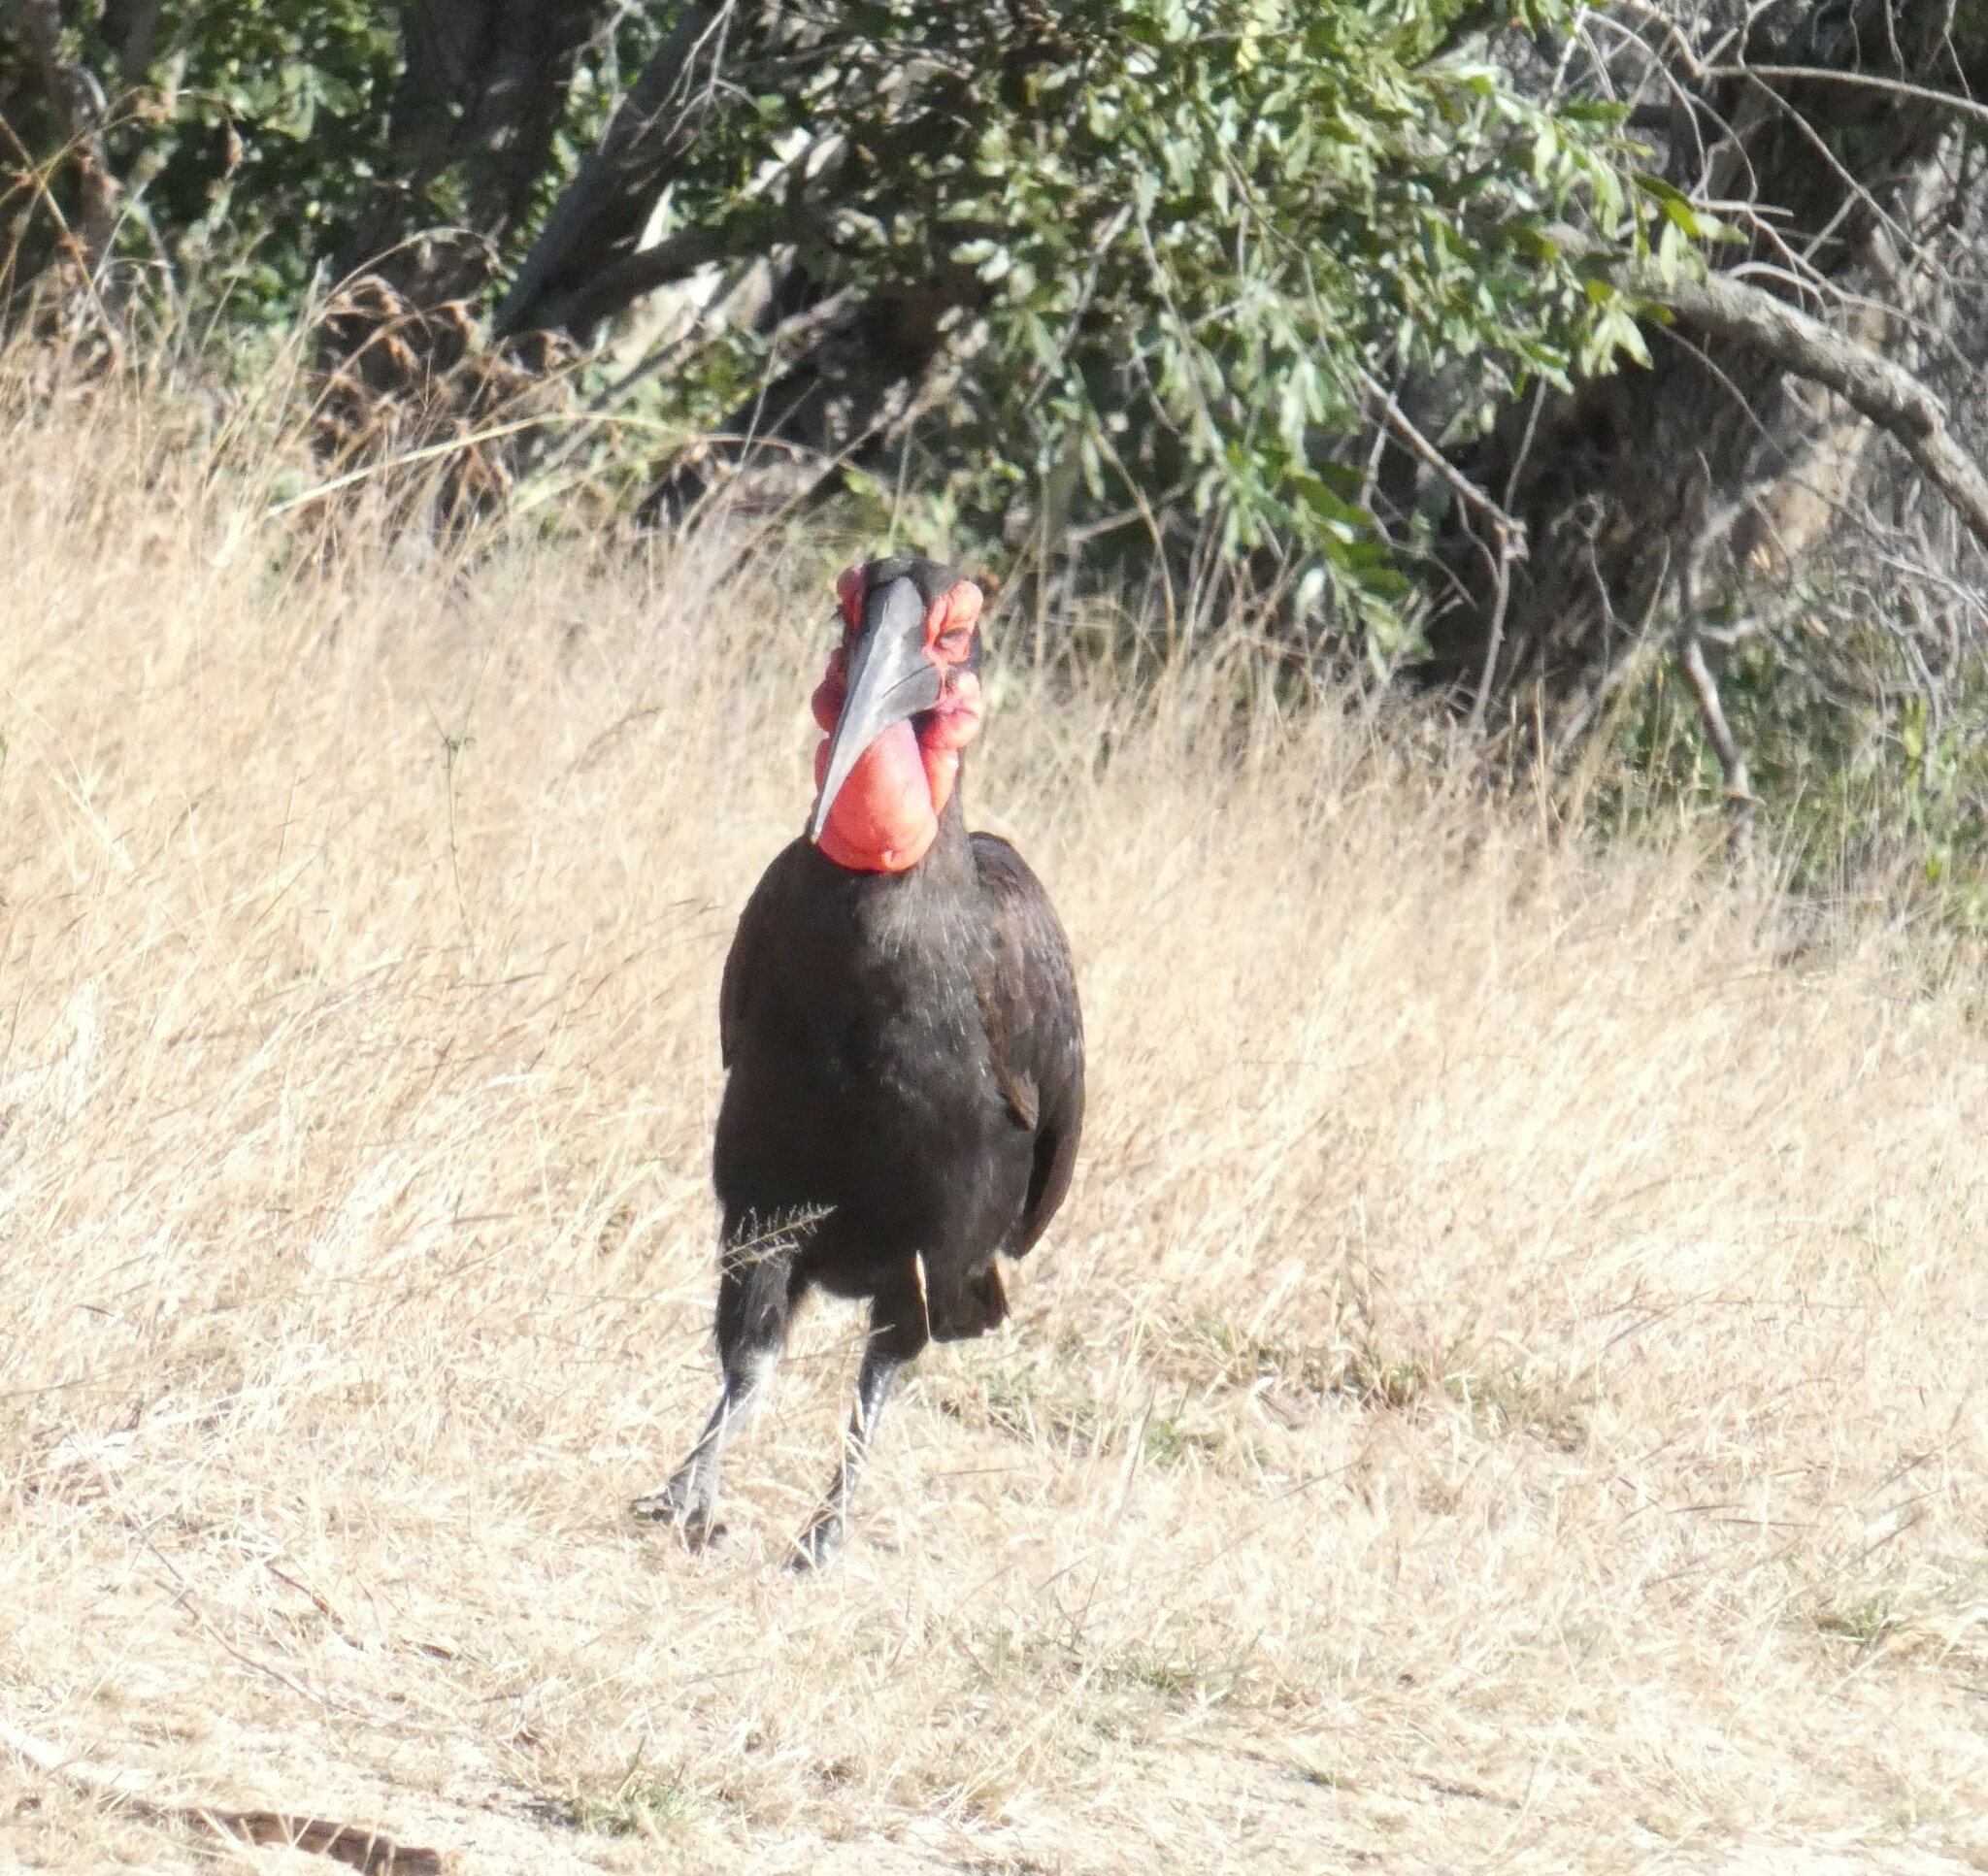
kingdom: Animalia
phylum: Chordata
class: Aves
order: Bucerotiformes
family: Bucorvidae
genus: Bucorvus
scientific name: Bucorvus leadbeateri
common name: Southern ground-hornbill
